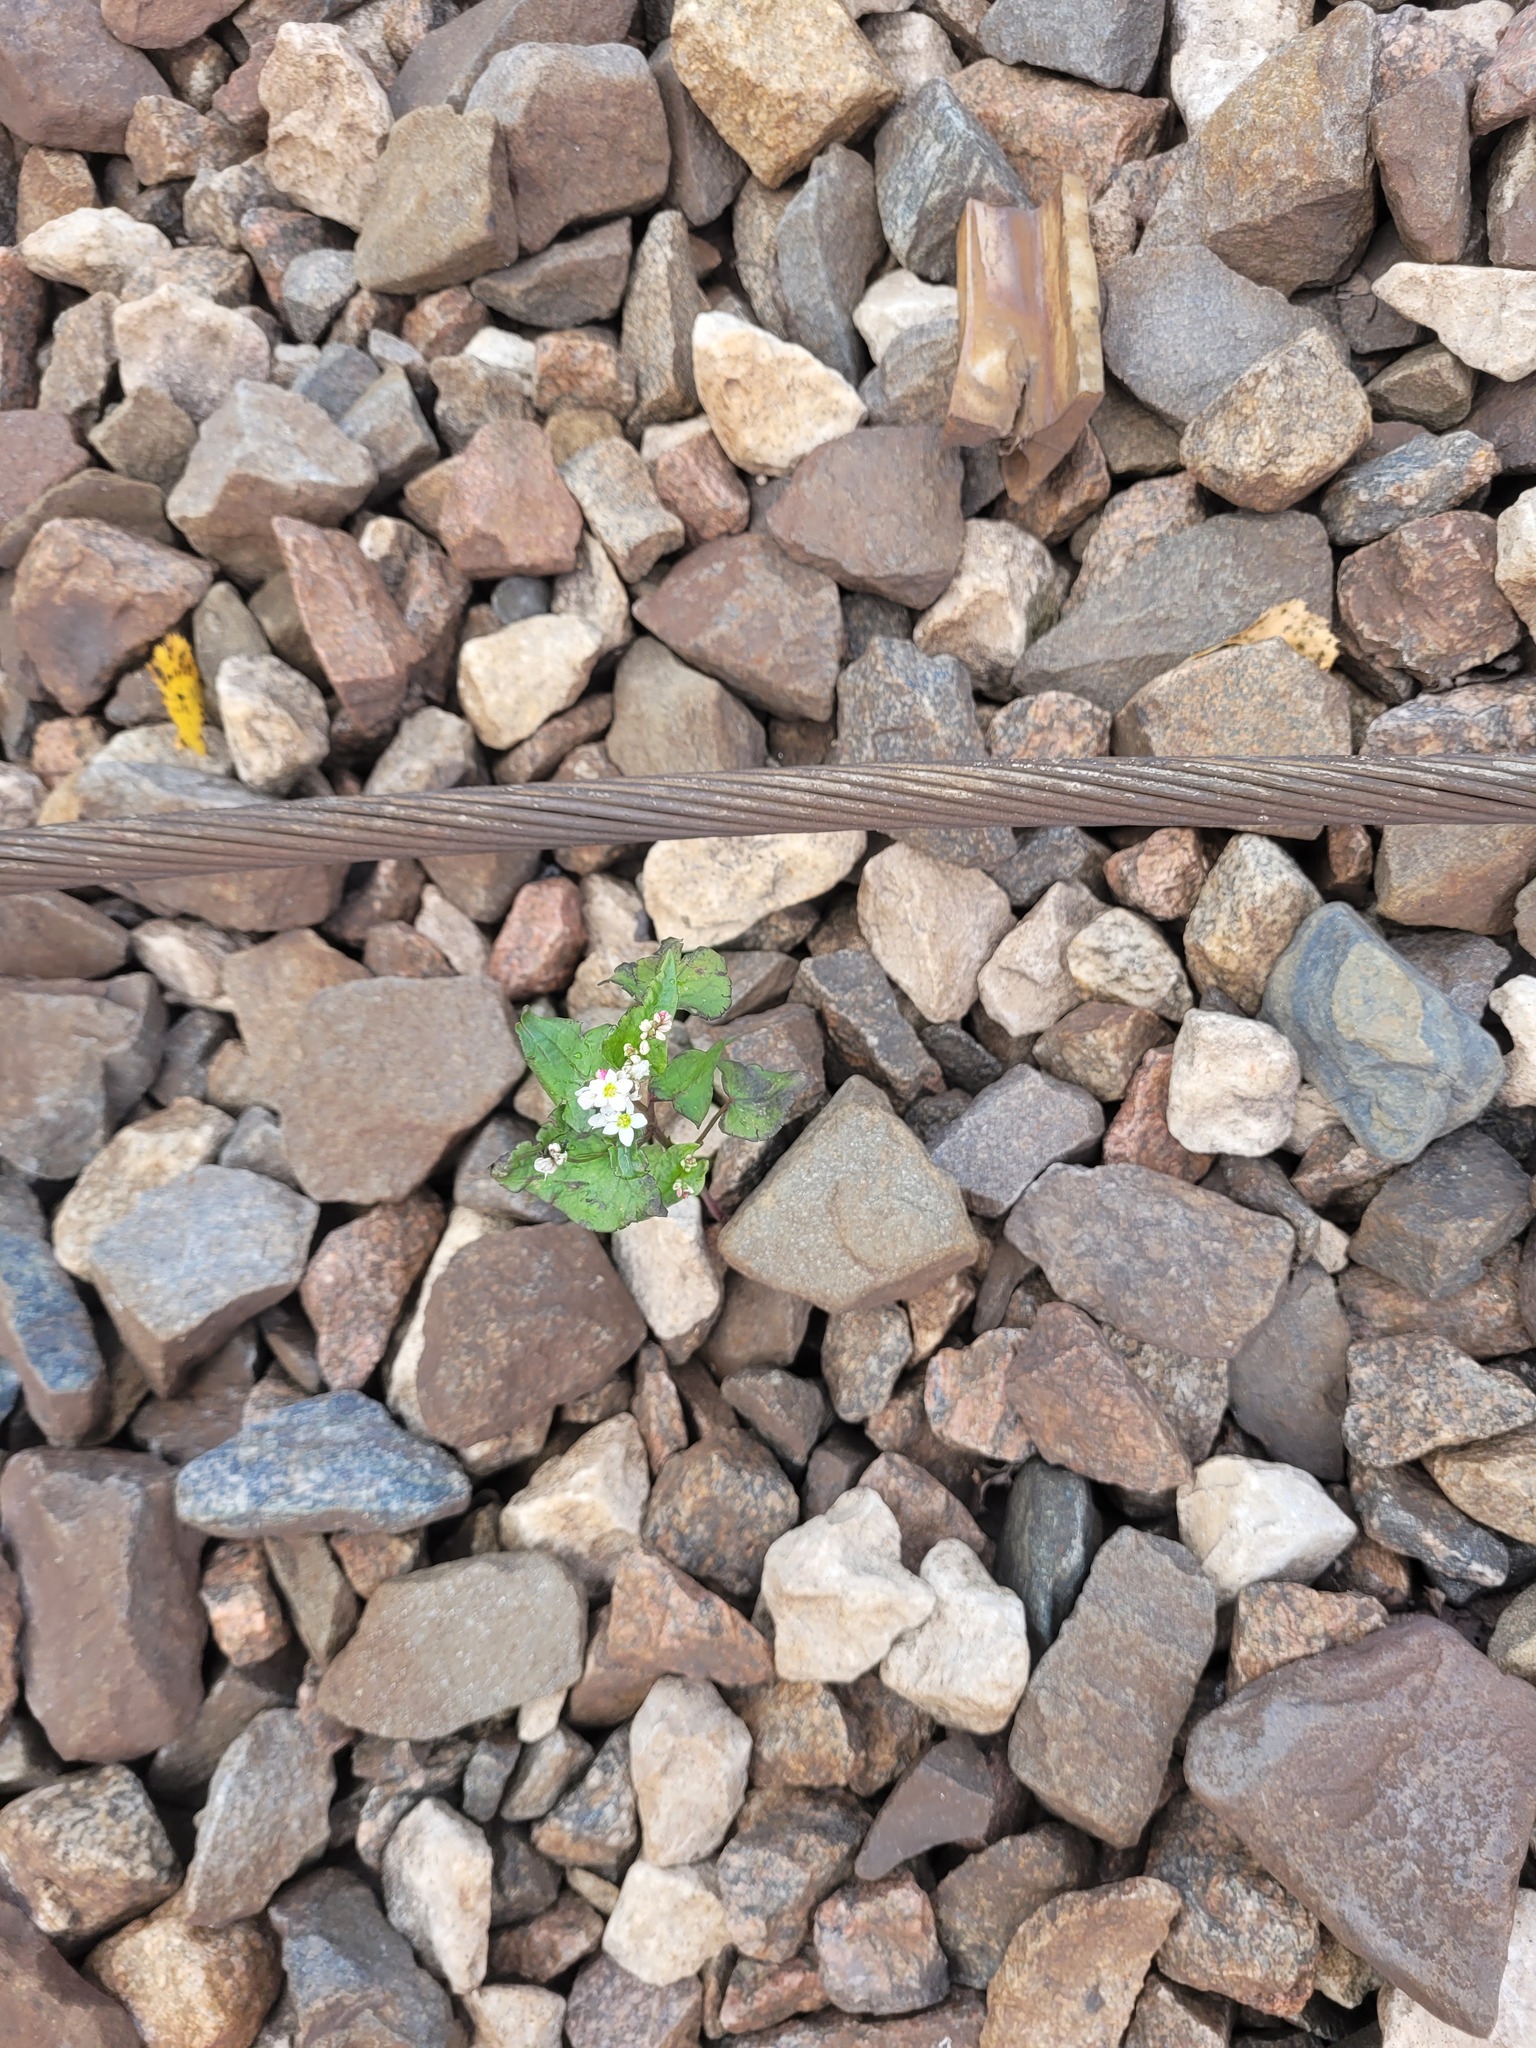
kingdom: Plantae
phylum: Tracheophyta
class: Magnoliopsida
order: Caryophyllales
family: Polygonaceae
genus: Fagopyrum
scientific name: Fagopyrum esculentum
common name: Buckwheat
